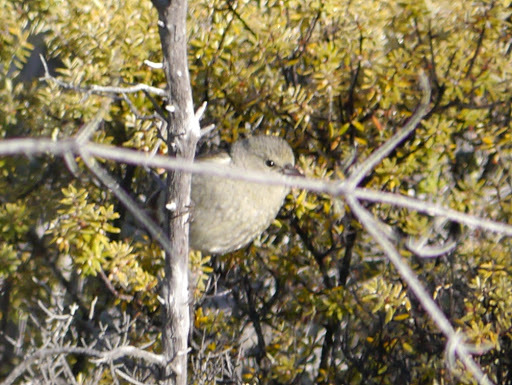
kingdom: Animalia
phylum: Chordata
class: Aves
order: Passeriformes
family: Fringillidae
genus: Chlorodrepanis
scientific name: Chlorodrepanis virens
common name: Hawaii amakihi
